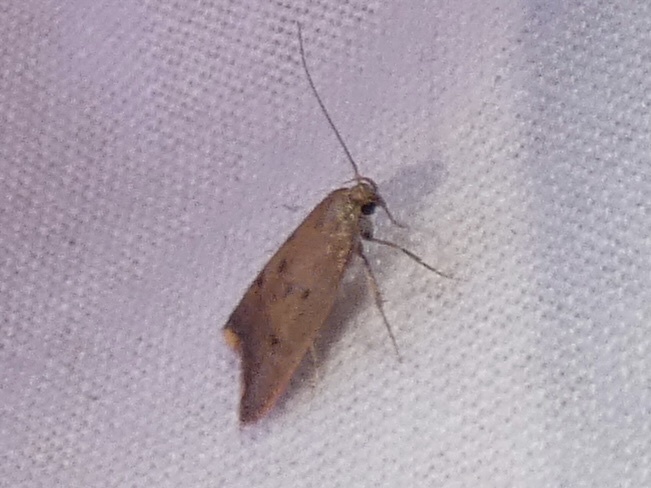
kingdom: Animalia
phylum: Arthropoda
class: Insecta
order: Lepidoptera
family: Oecophoridae
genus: Tachystola
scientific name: Tachystola acroxantha
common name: Ruddy streak
